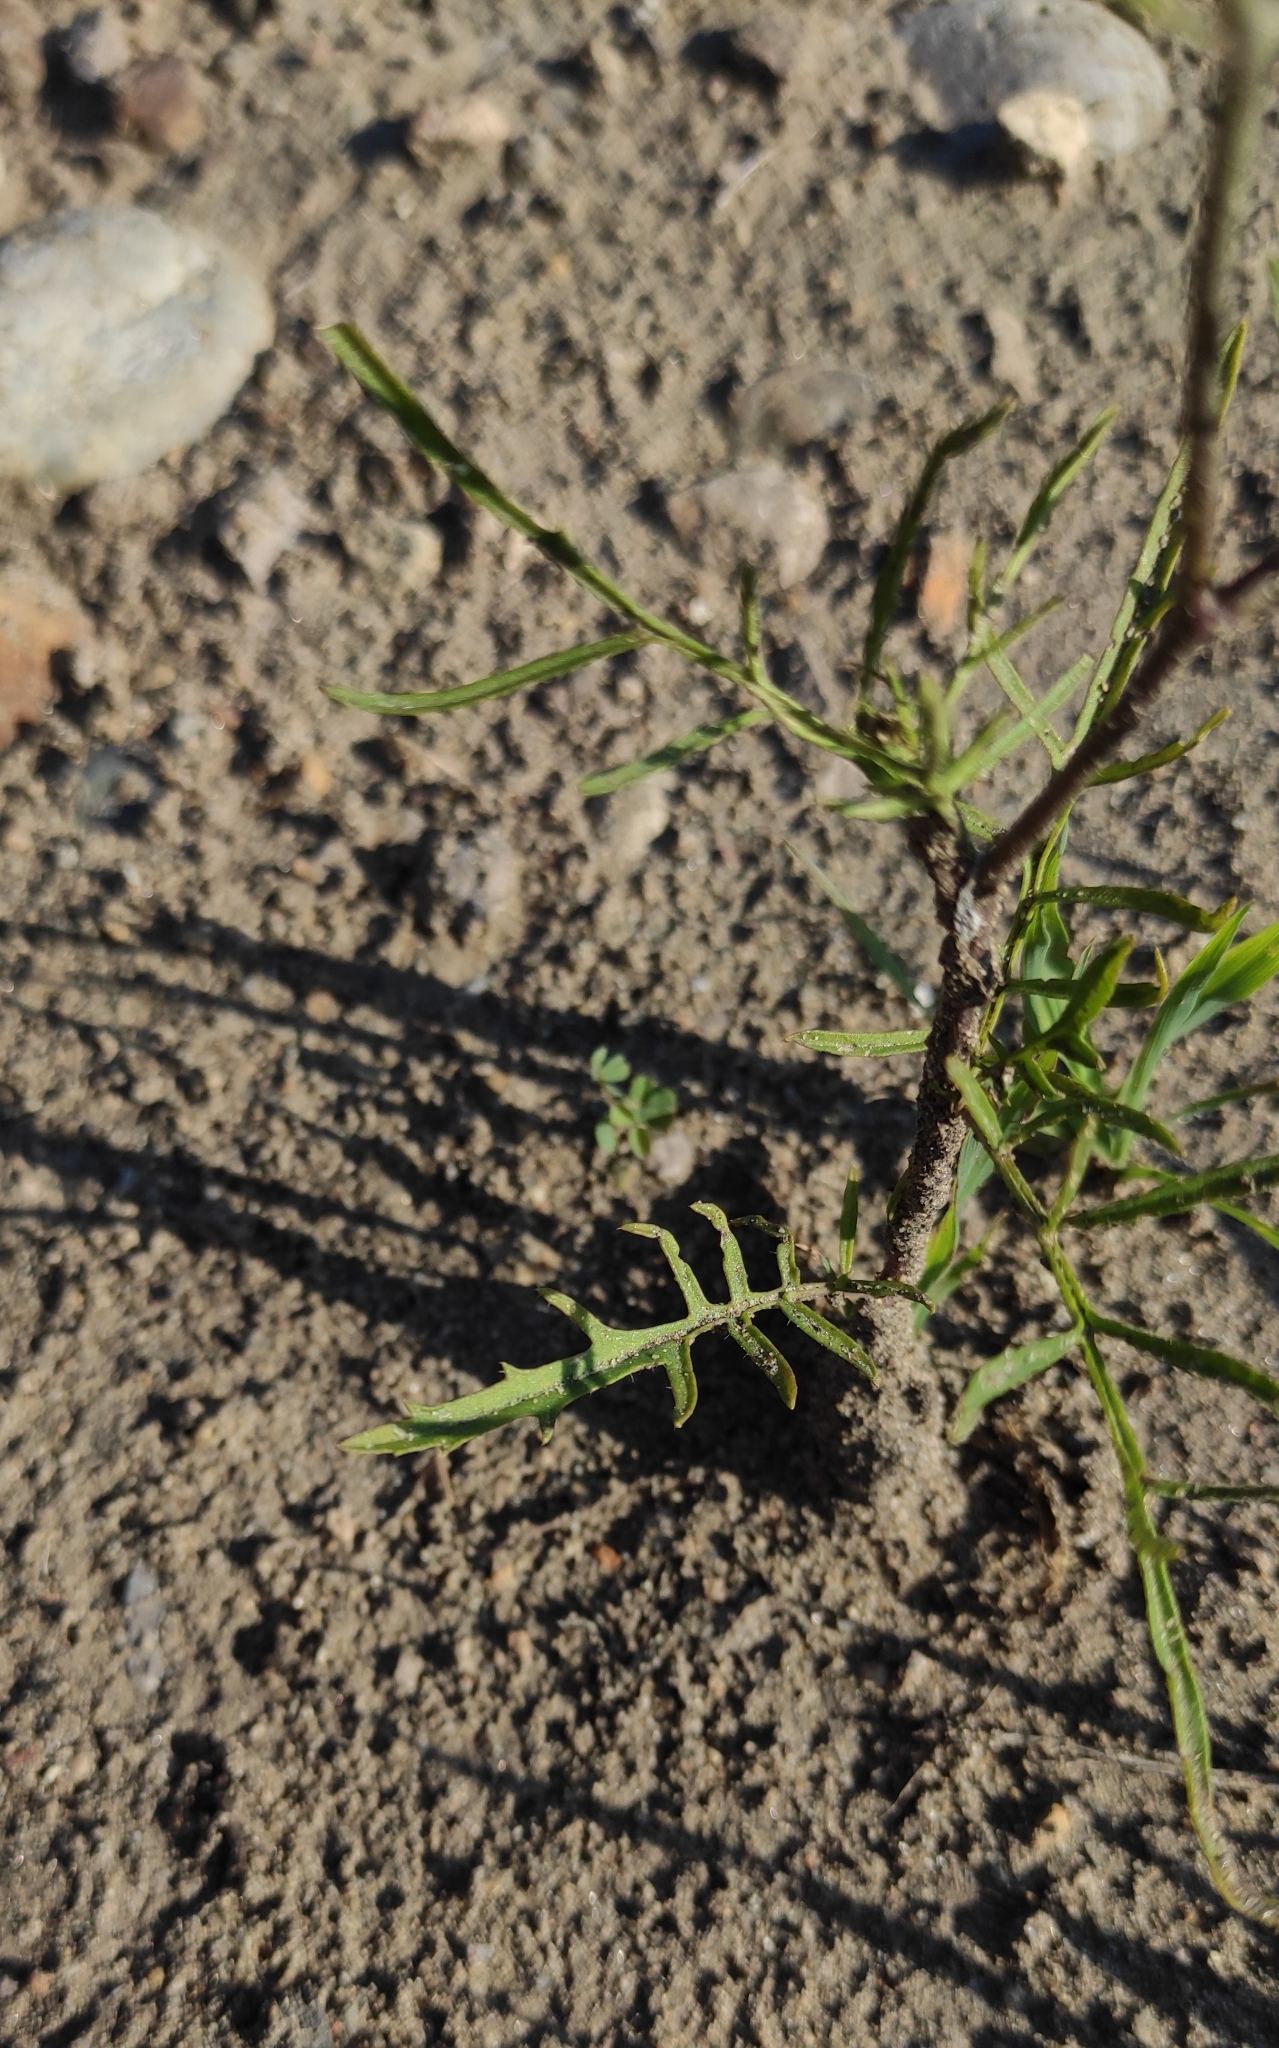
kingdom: Plantae
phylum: Tracheophyta
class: Magnoliopsida
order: Brassicales
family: Brassicaceae
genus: Sisymbrium
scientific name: Sisymbrium altissimum
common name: Tall rocket
